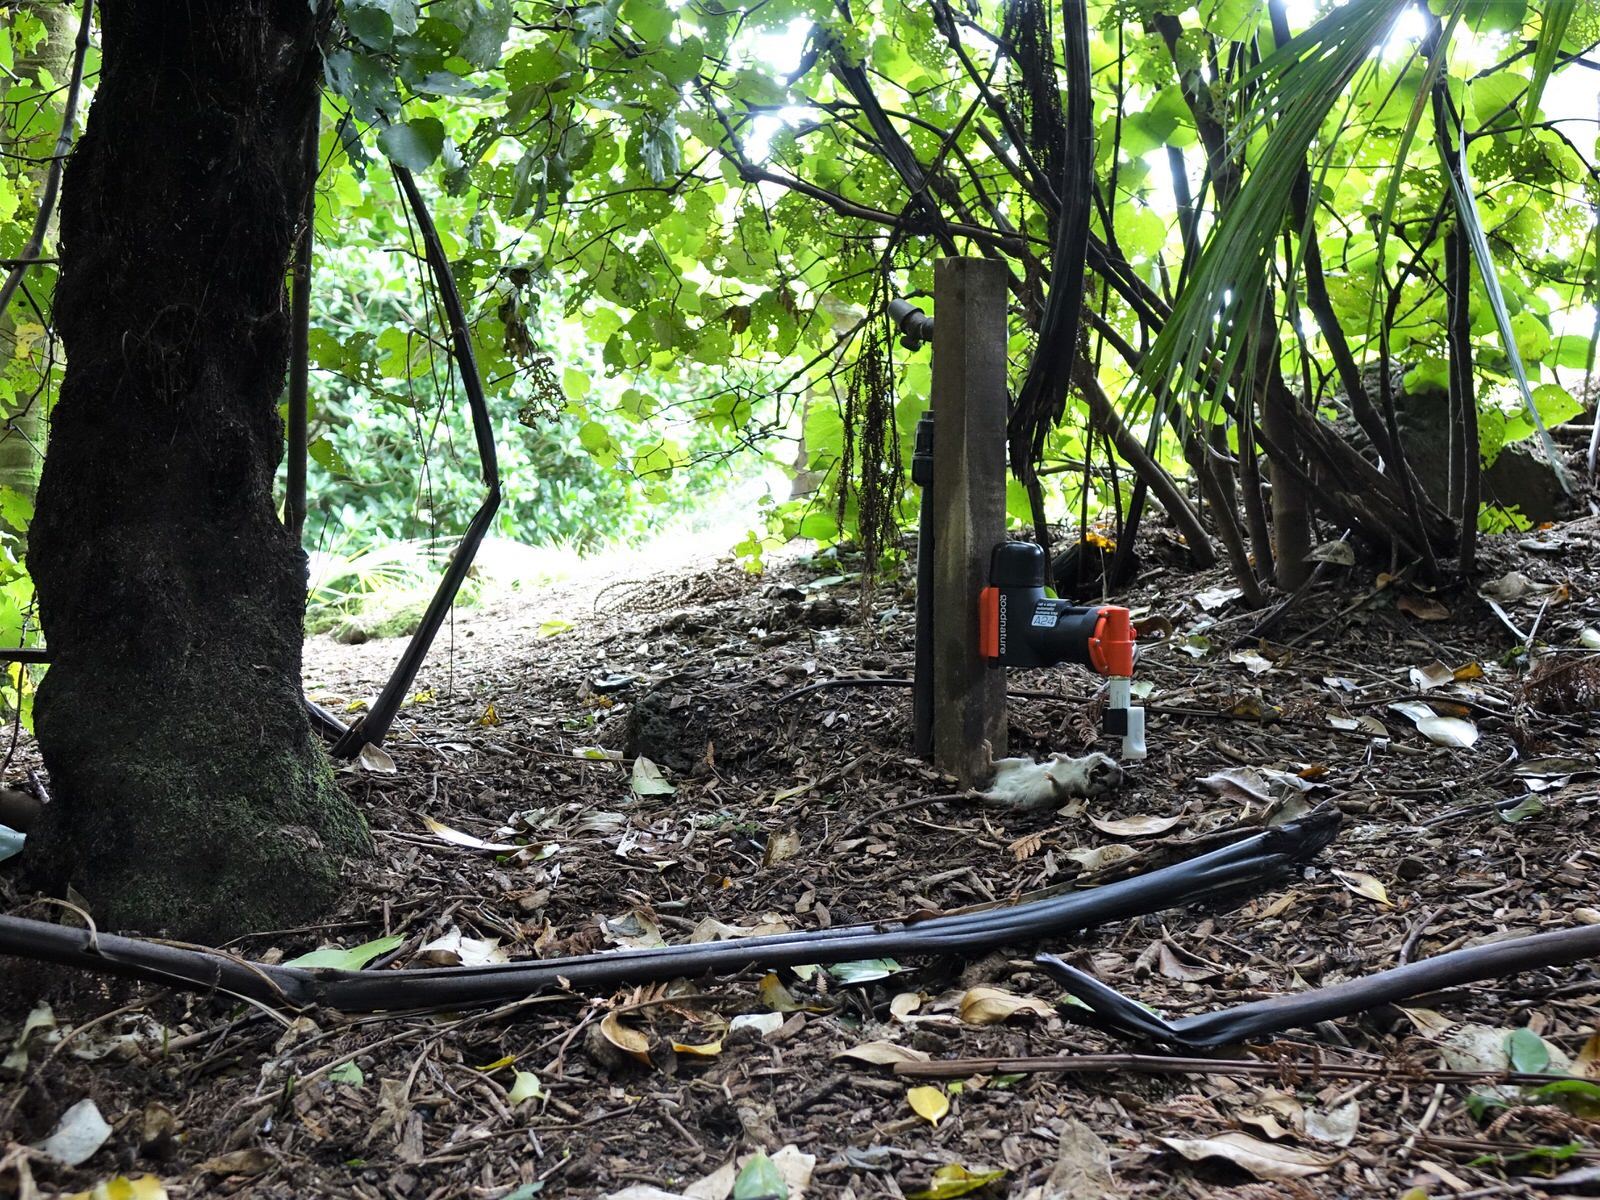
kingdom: Animalia
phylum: Chordata
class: Mammalia
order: Rodentia
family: Muridae
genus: Rattus
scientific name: Rattus rattus
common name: Black rat
